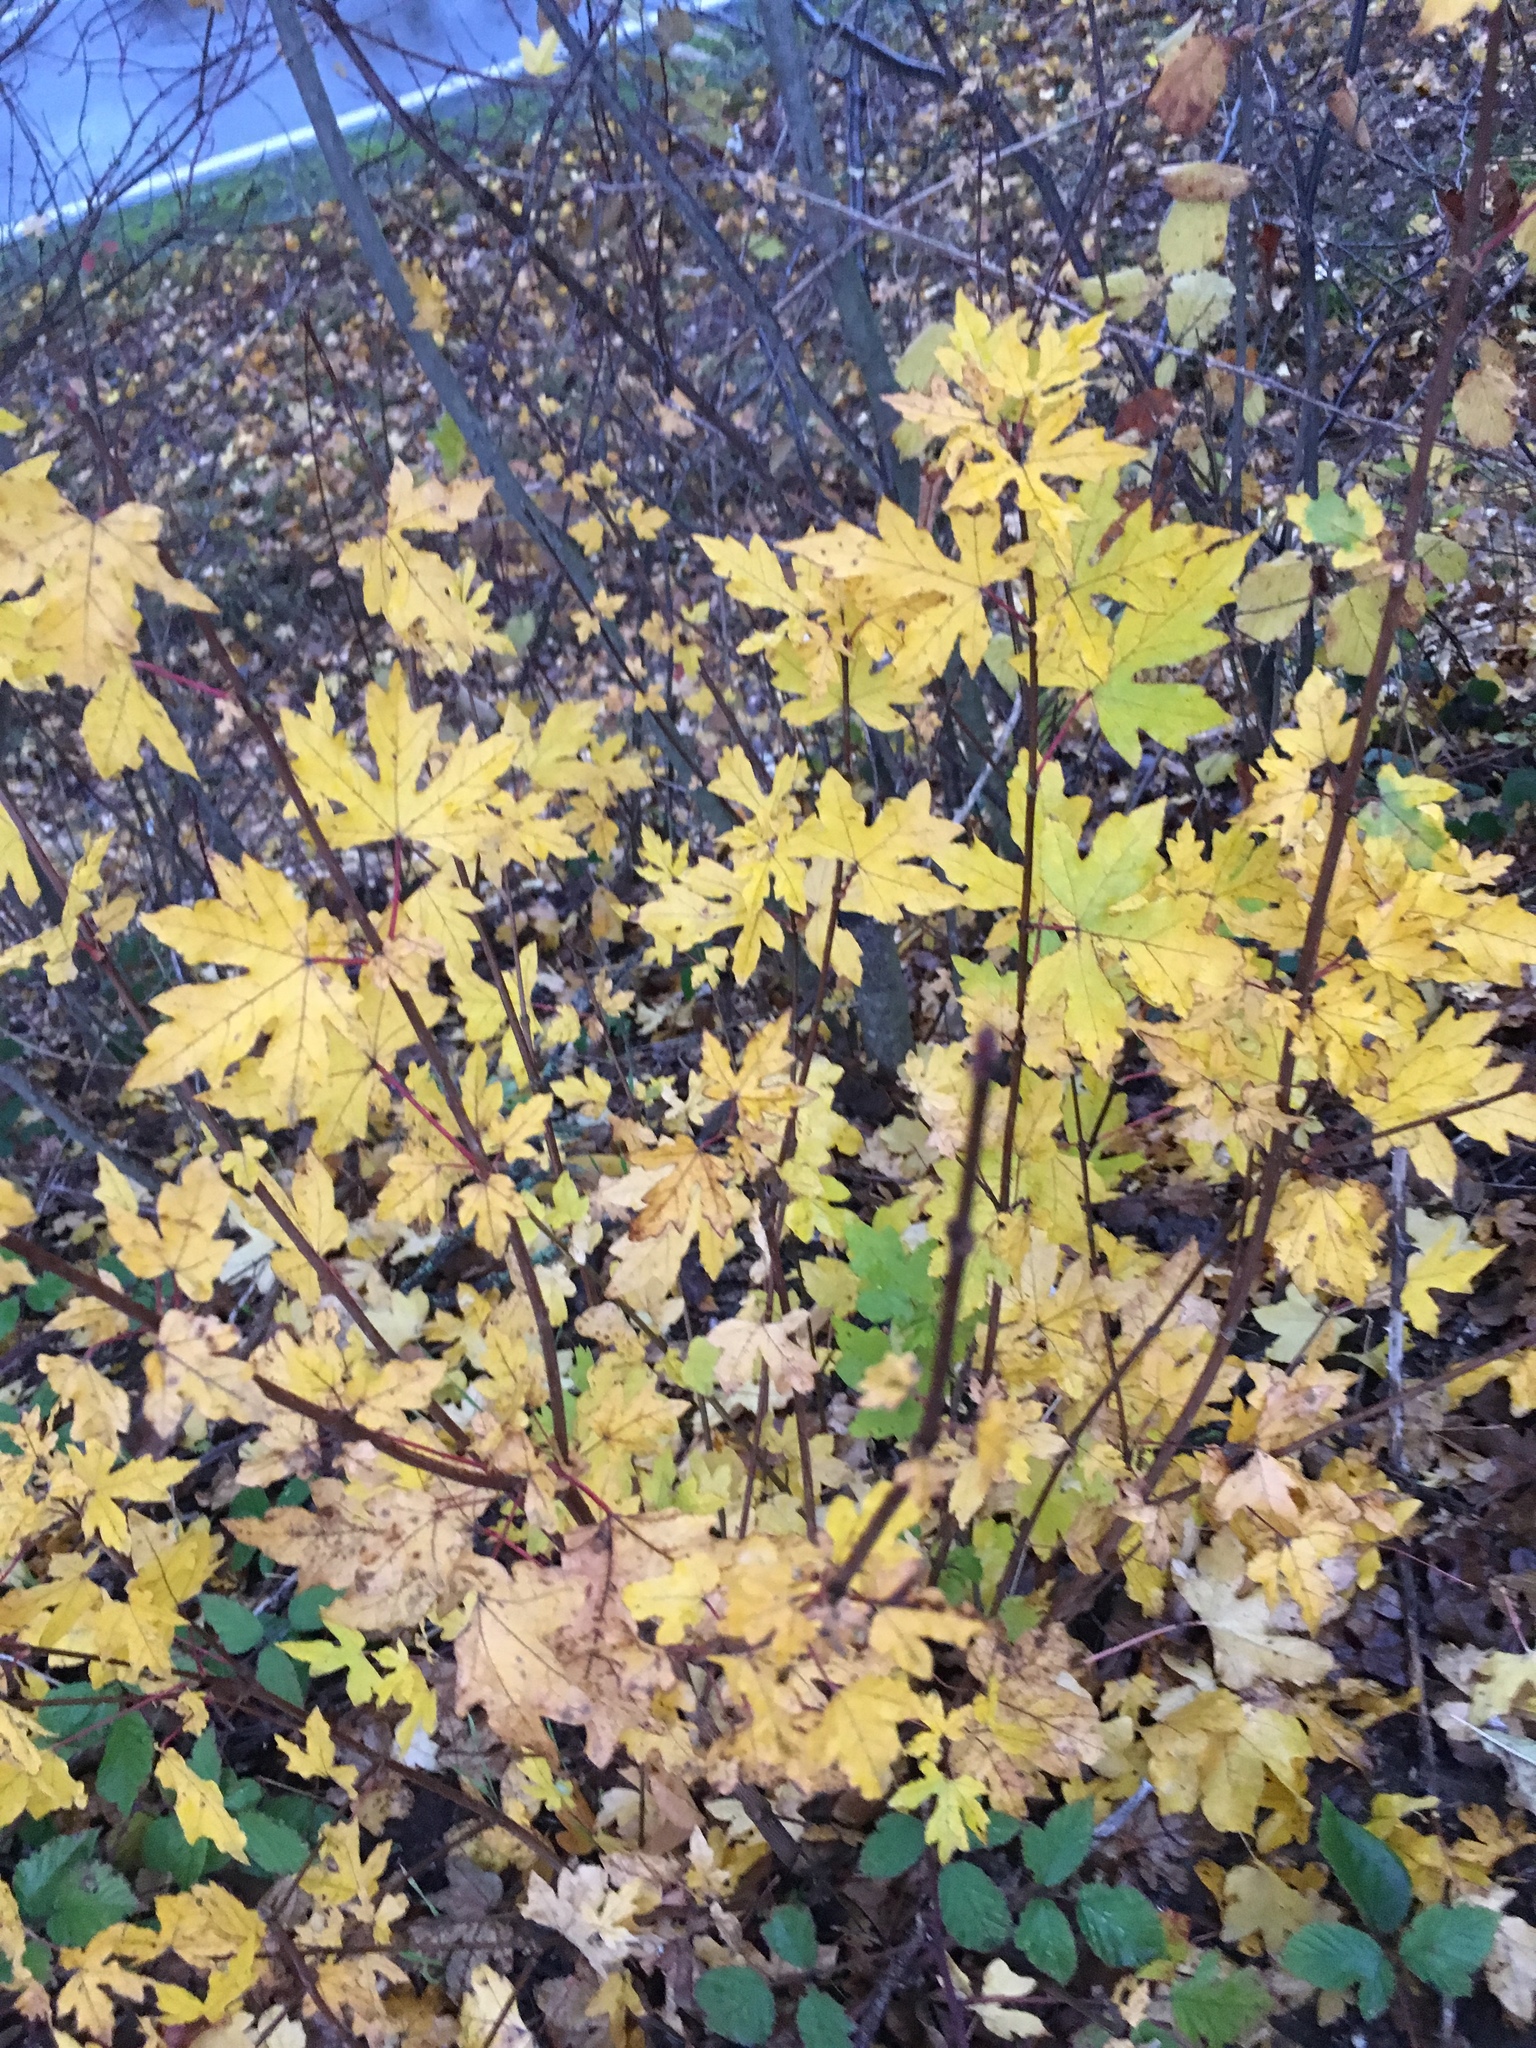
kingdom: Plantae
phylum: Tracheophyta
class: Magnoliopsida
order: Sapindales
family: Sapindaceae
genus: Acer
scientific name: Acer saccharinum
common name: Silver maple
